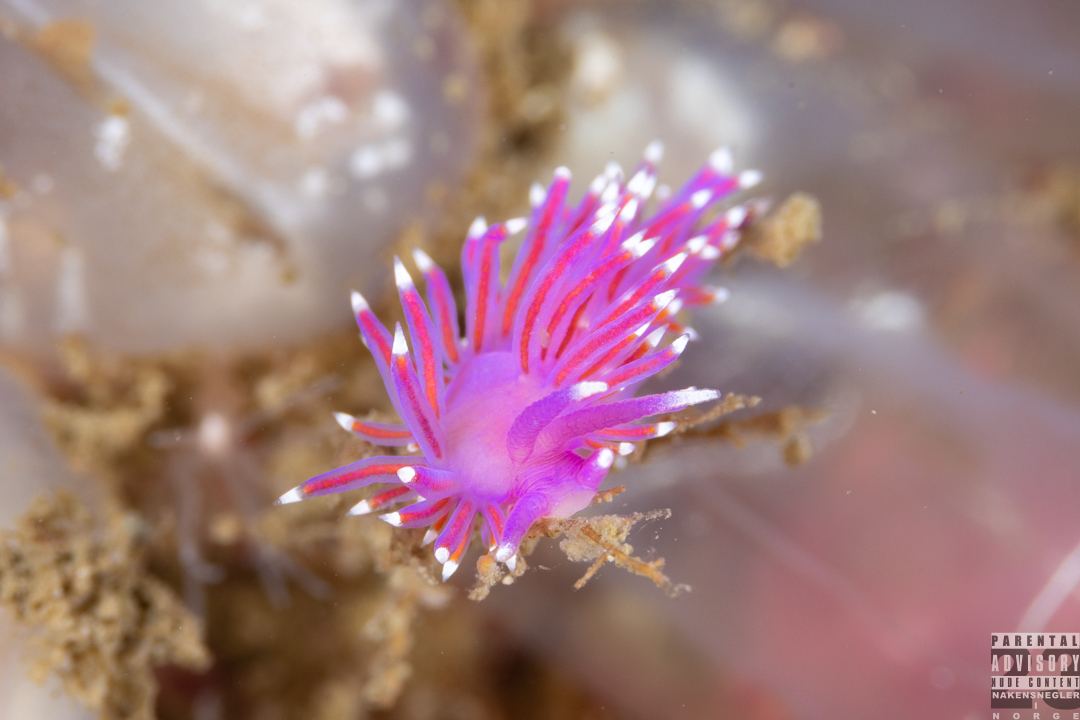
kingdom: Animalia
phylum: Mollusca
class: Gastropoda
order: Nudibranchia
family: Flabellinidae
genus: Edmundsella
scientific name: Edmundsella pedata
